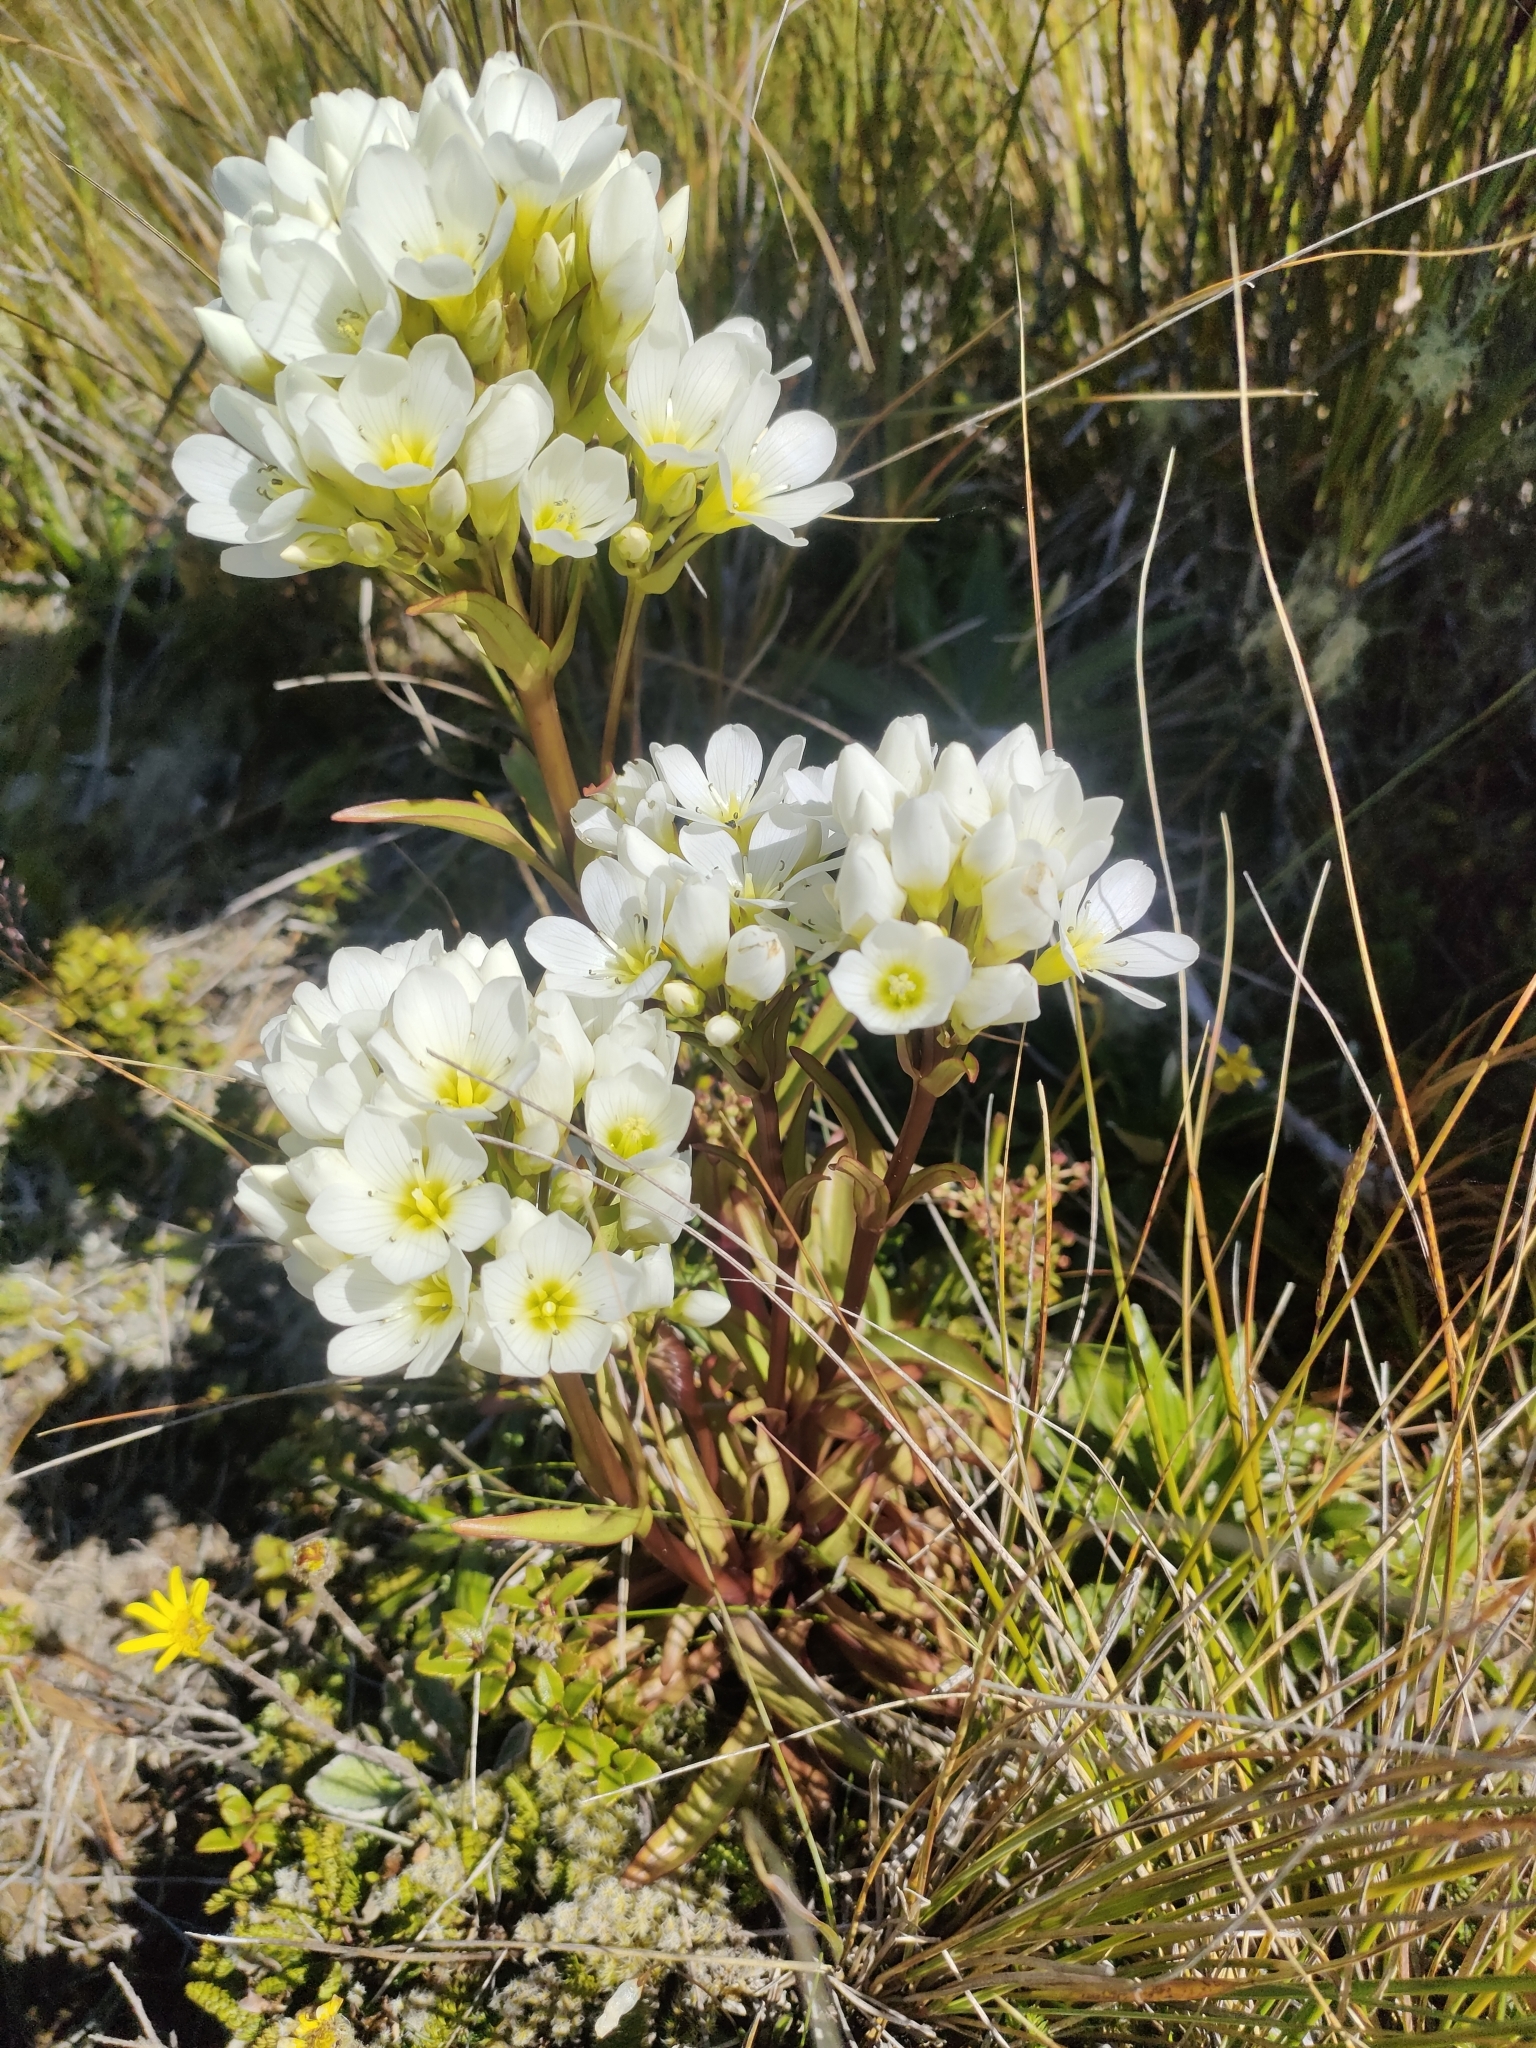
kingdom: Plantae
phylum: Tracheophyta
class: Magnoliopsida
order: Gentianales
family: Gentianaceae
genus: Gentianella
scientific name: Gentianella corymbifera
